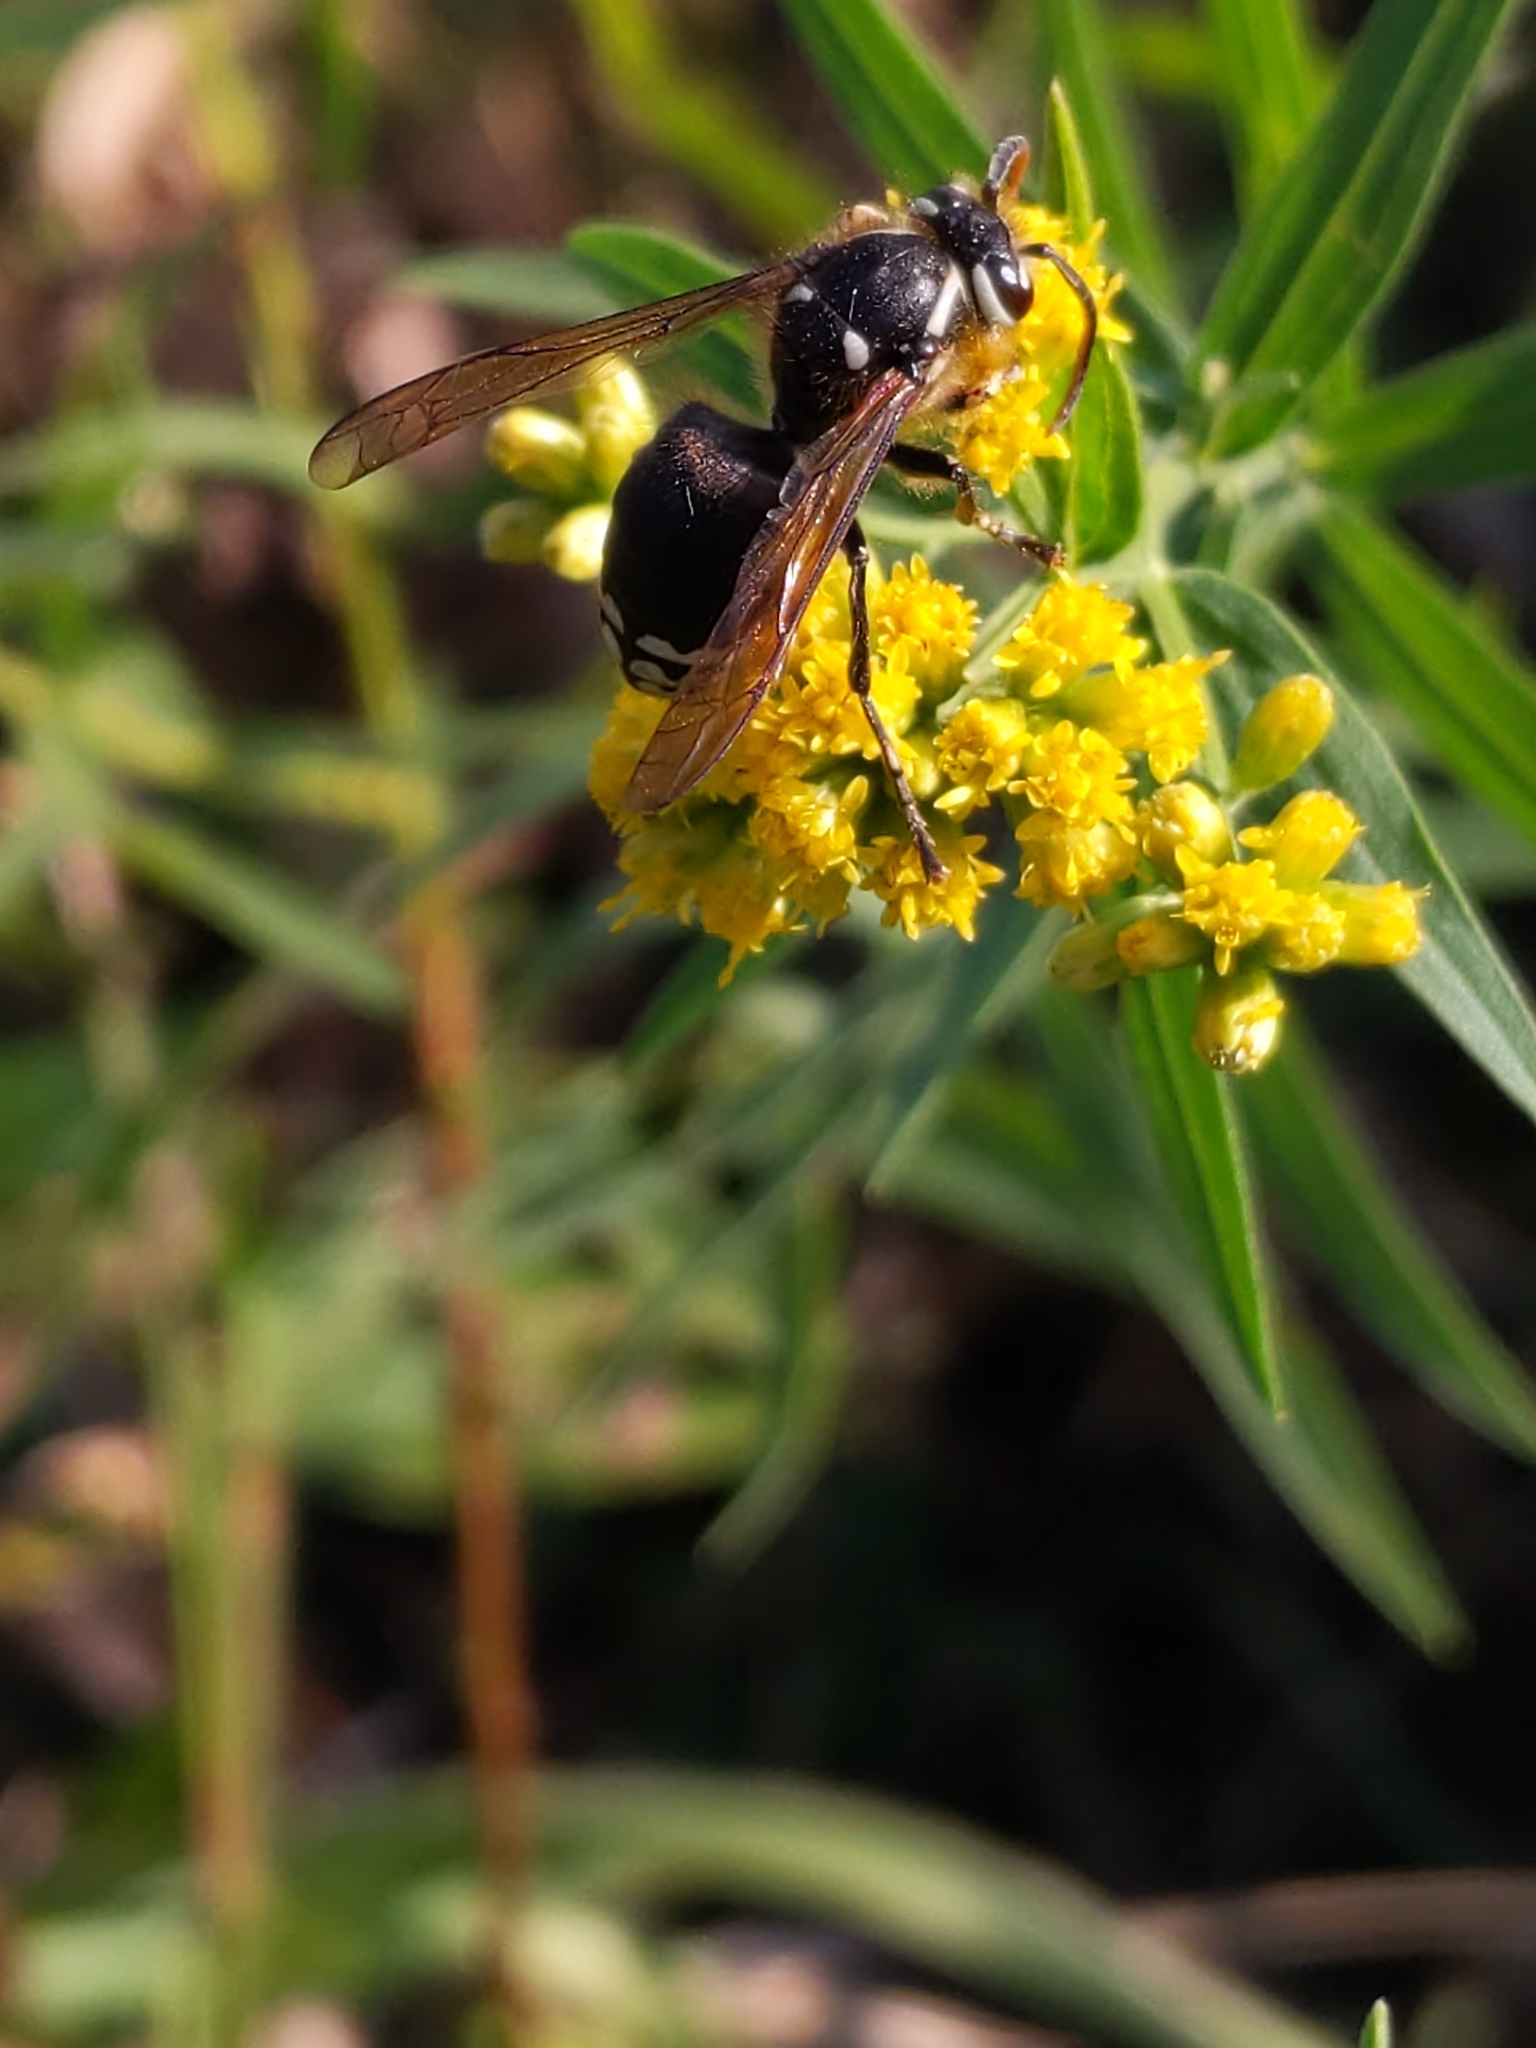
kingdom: Animalia
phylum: Arthropoda
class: Insecta
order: Hymenoptera
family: Vespidae
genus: Dolichovespula
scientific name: Dolichovespula maculata
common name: Bald-faced hornet
